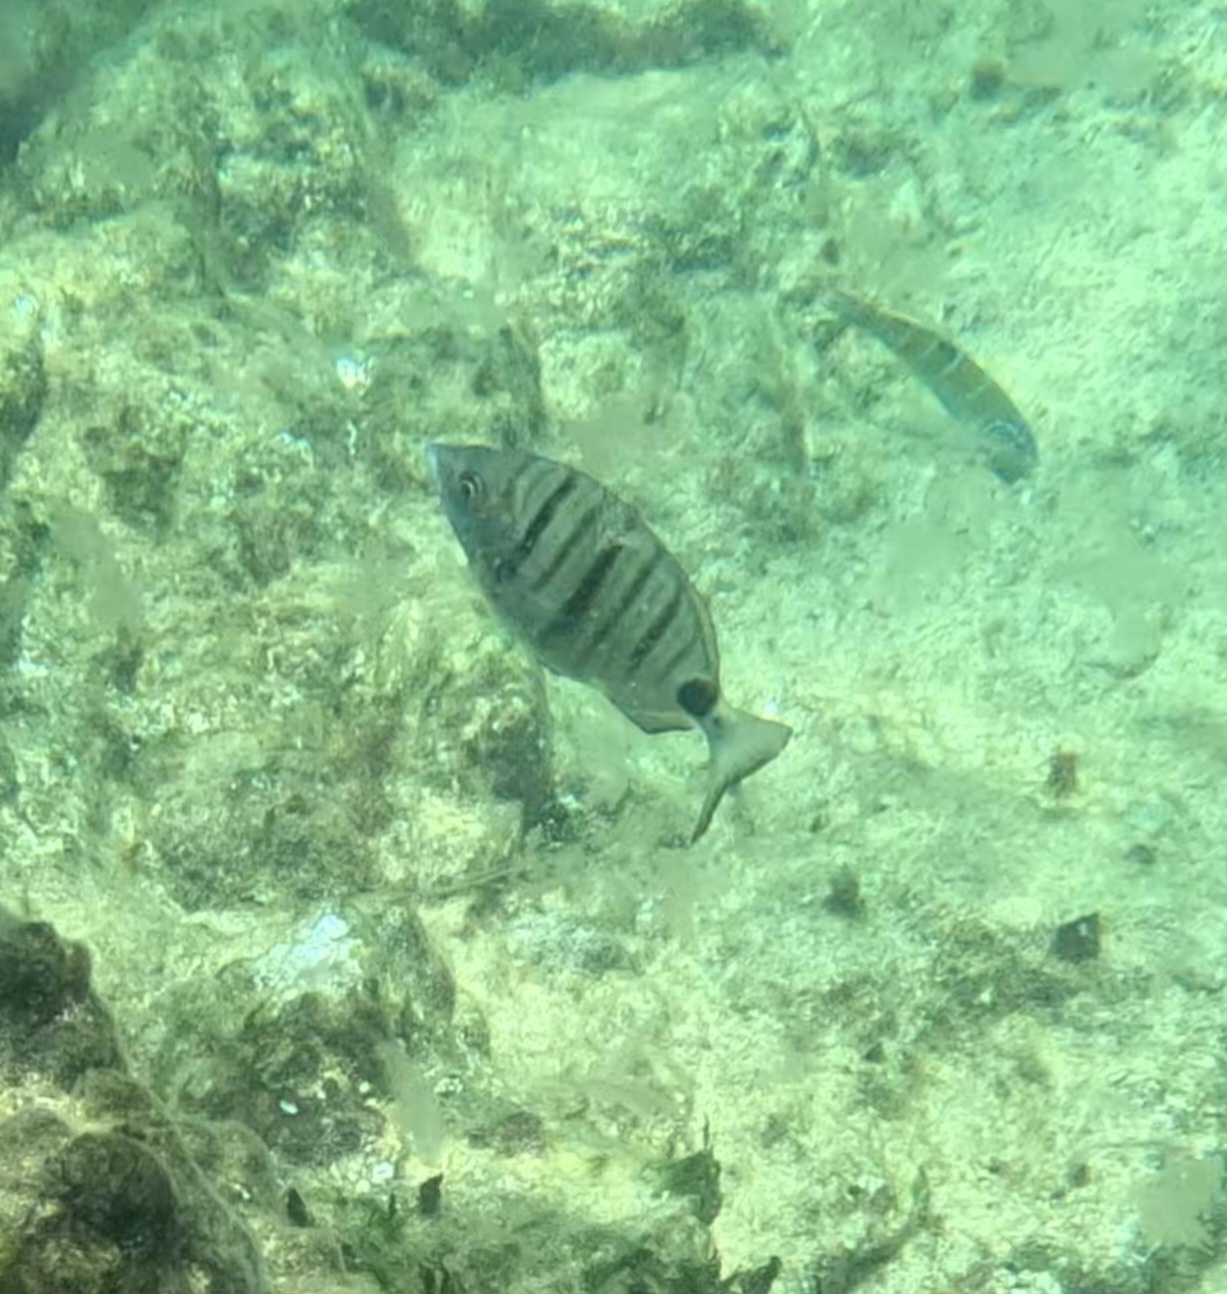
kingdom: Animalia
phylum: Chordata
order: Perciformes
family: Sparidae
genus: Diplodus
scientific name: Diplodus puntazzo
